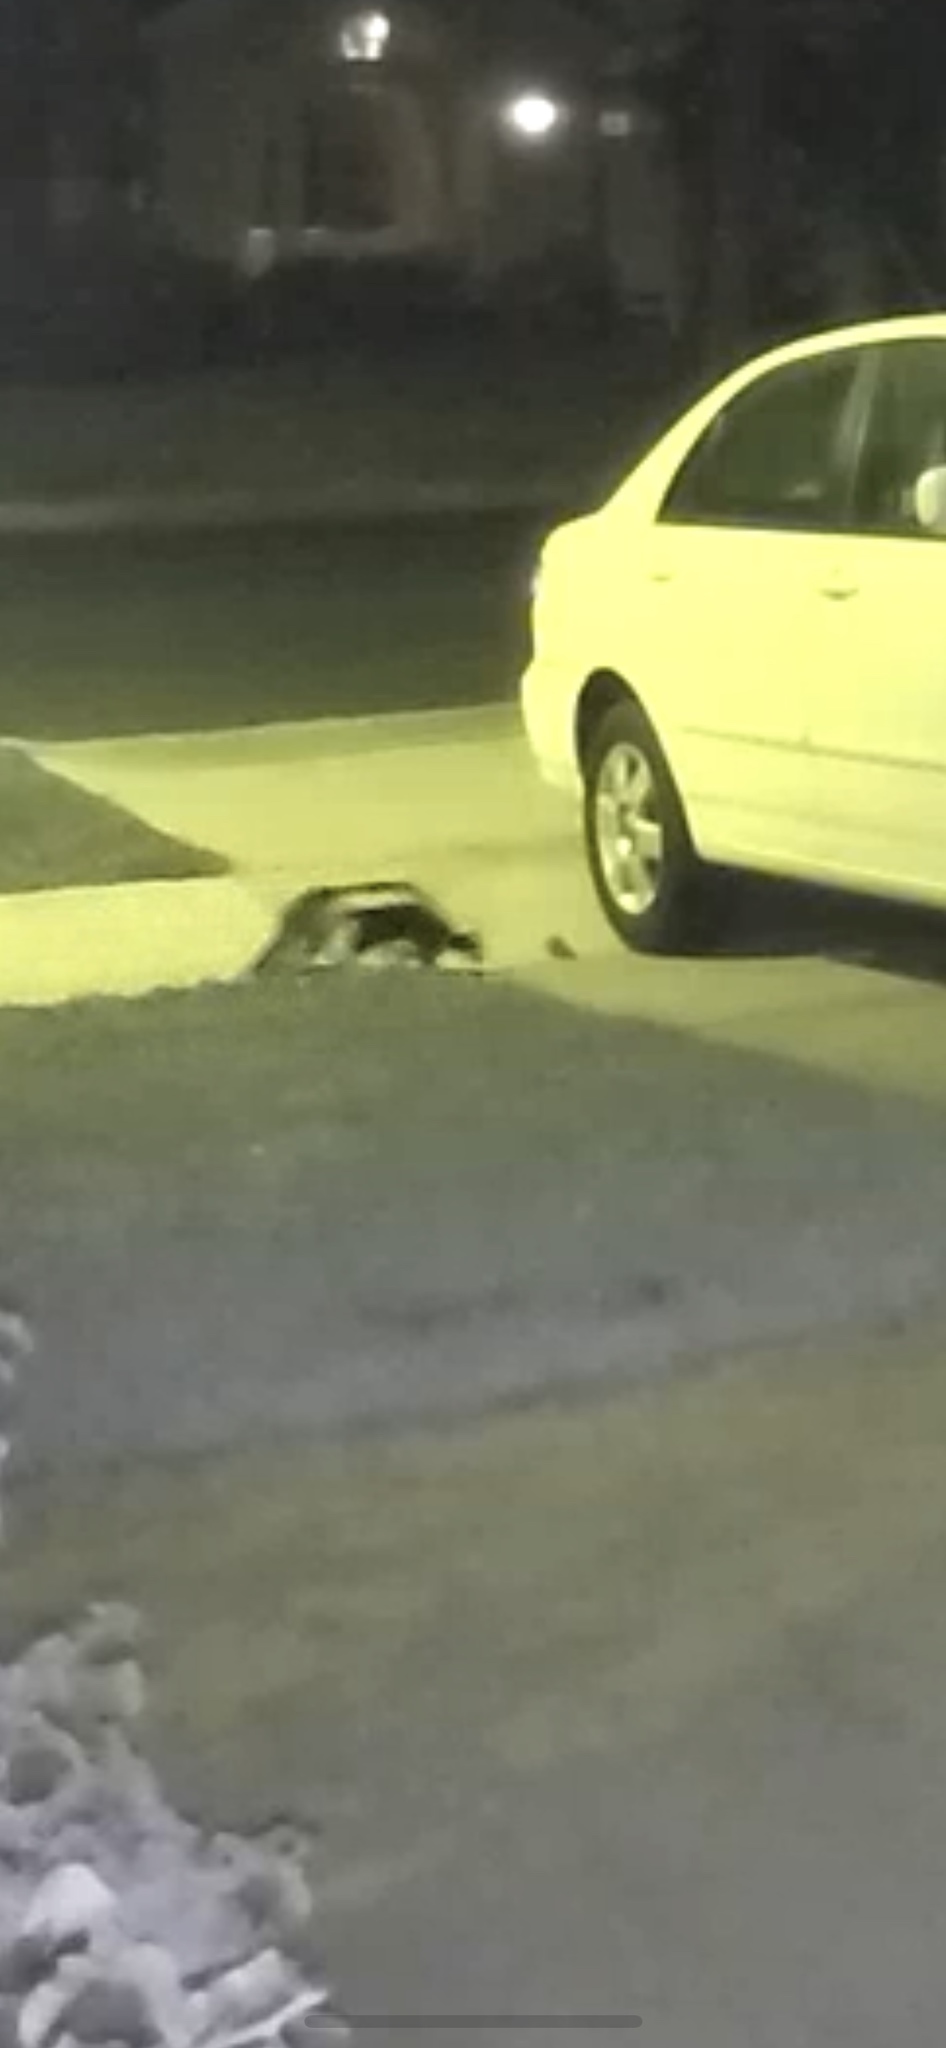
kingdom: Animalia
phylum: Chordata
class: Mammalia
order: Carnivora
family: Mephitidae
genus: Mephitis
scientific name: Mephitis mephitis
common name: Striped skunk
